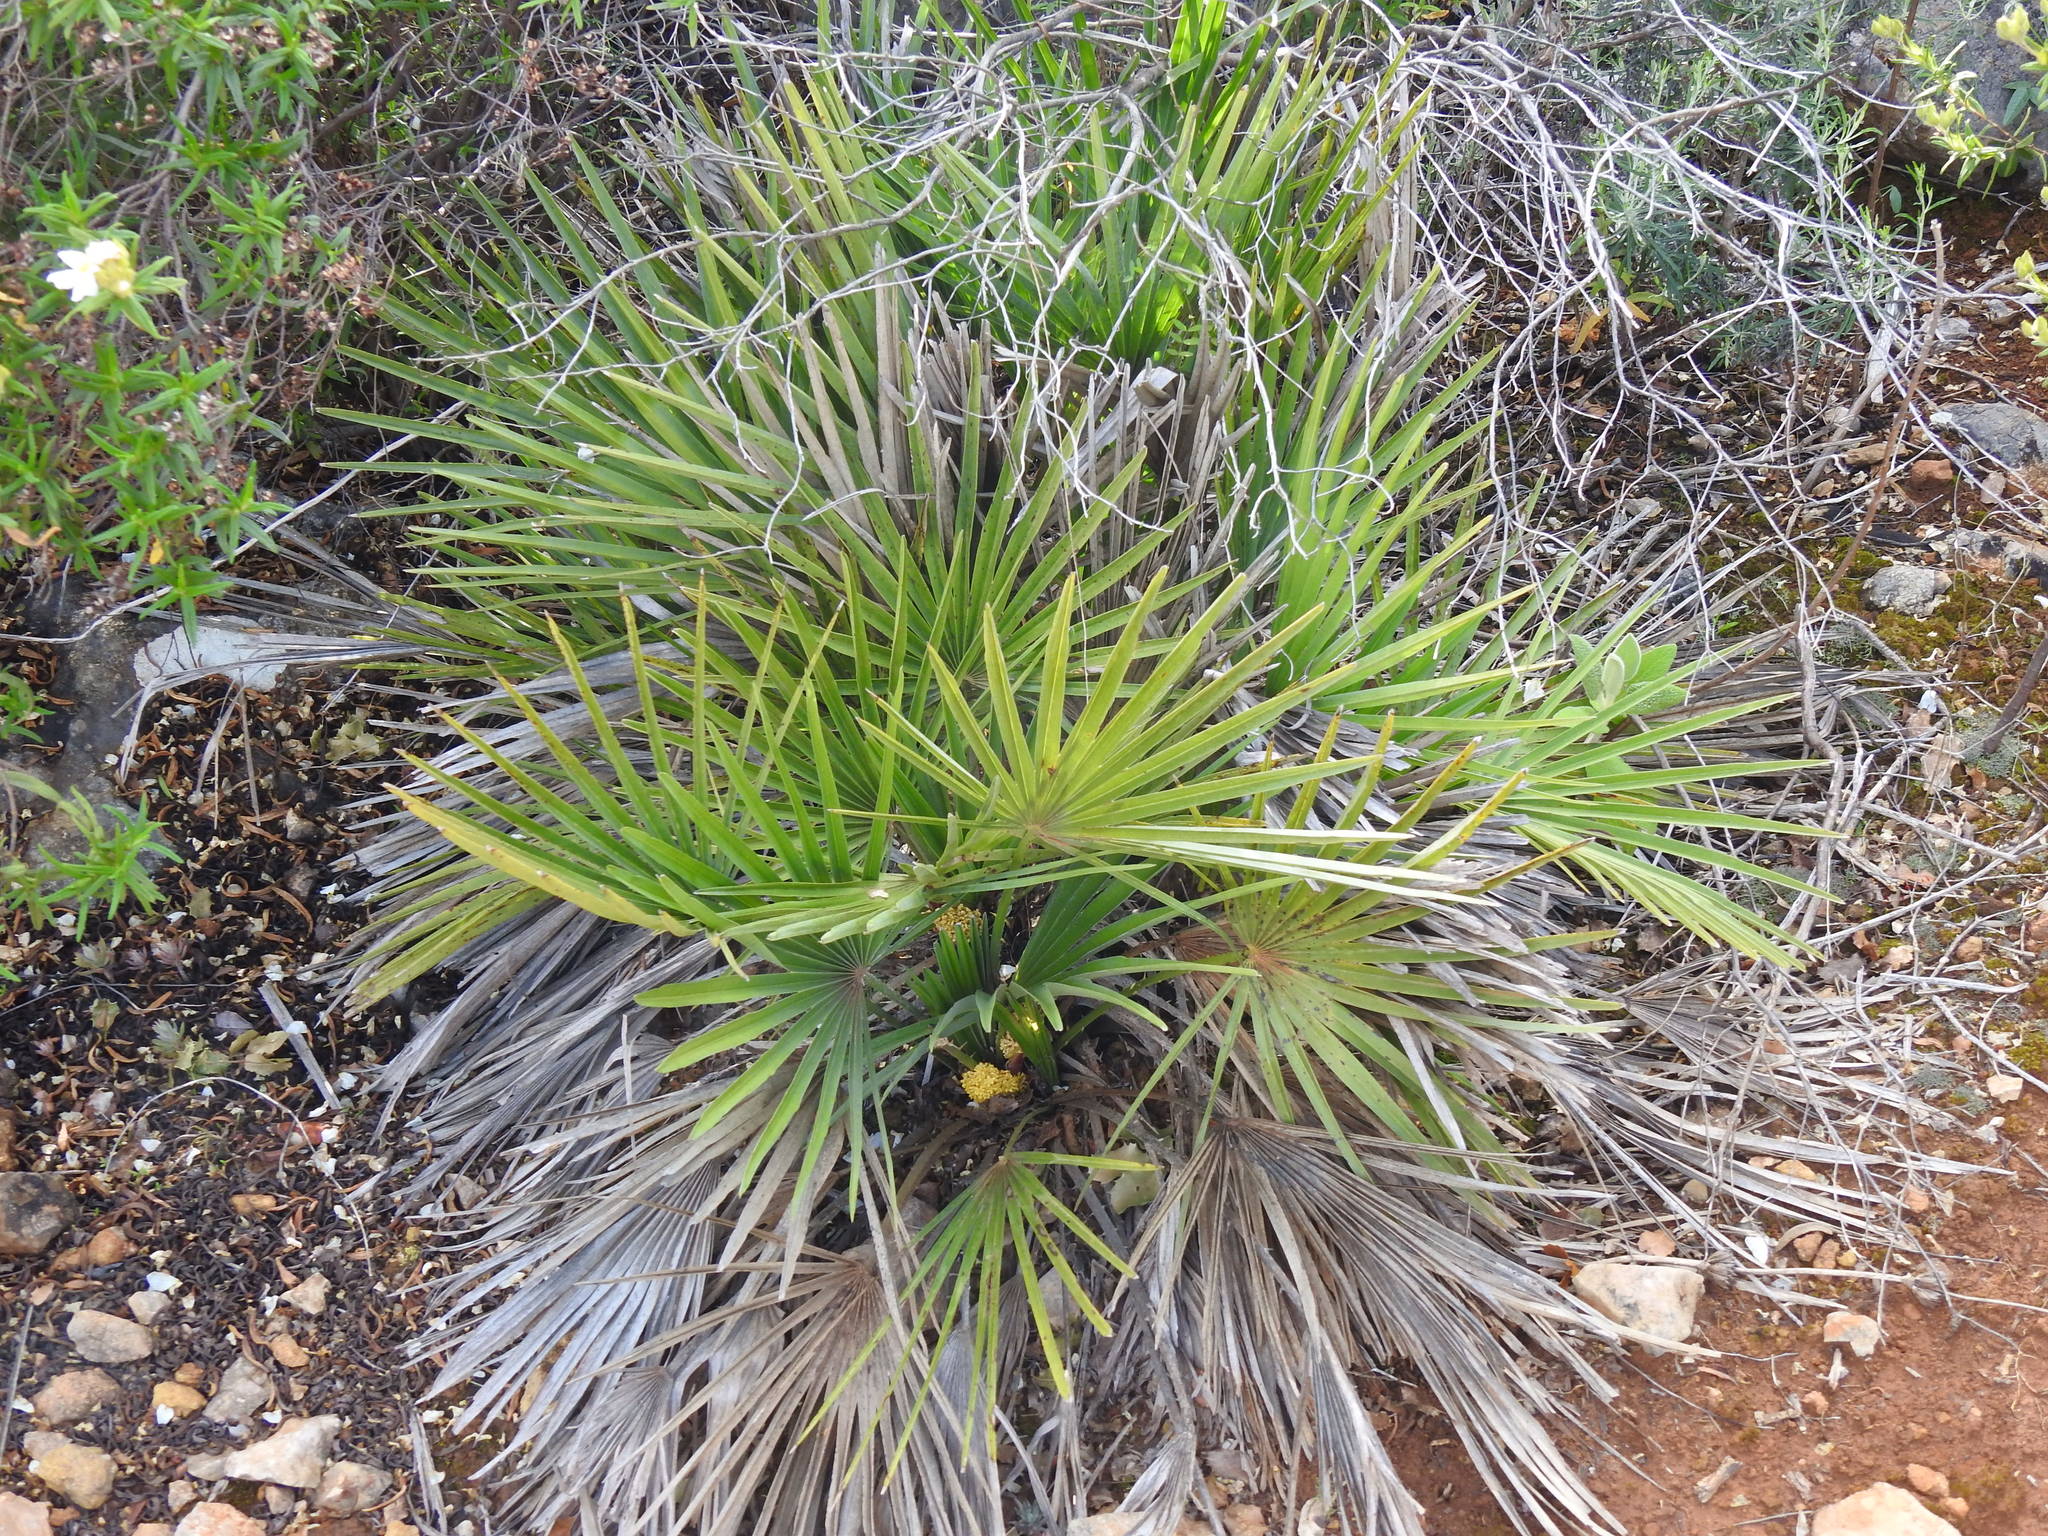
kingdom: Plantae
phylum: Tracheophyta
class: Liliopsida
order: Arecales
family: Arecaceae
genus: Chamaerops
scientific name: Chamaerops humilis
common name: Dwarf fan palm
